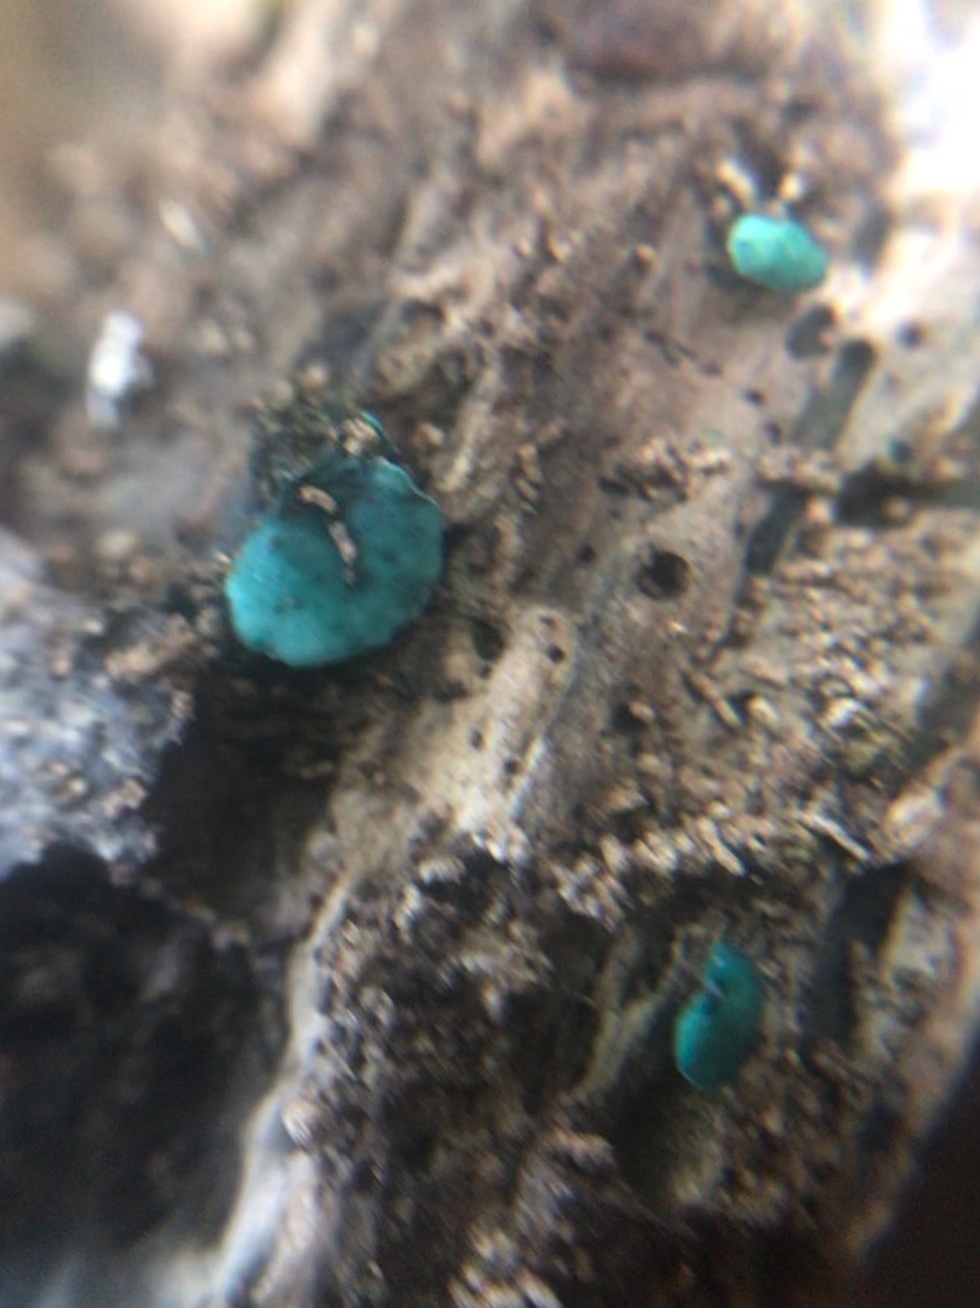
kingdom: Fungi
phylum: Ascomycota
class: Leotiomycetes
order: Helotiales
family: Chlorociboriaceae
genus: Chlorociboria
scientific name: Chlorociboria aeruginascens
